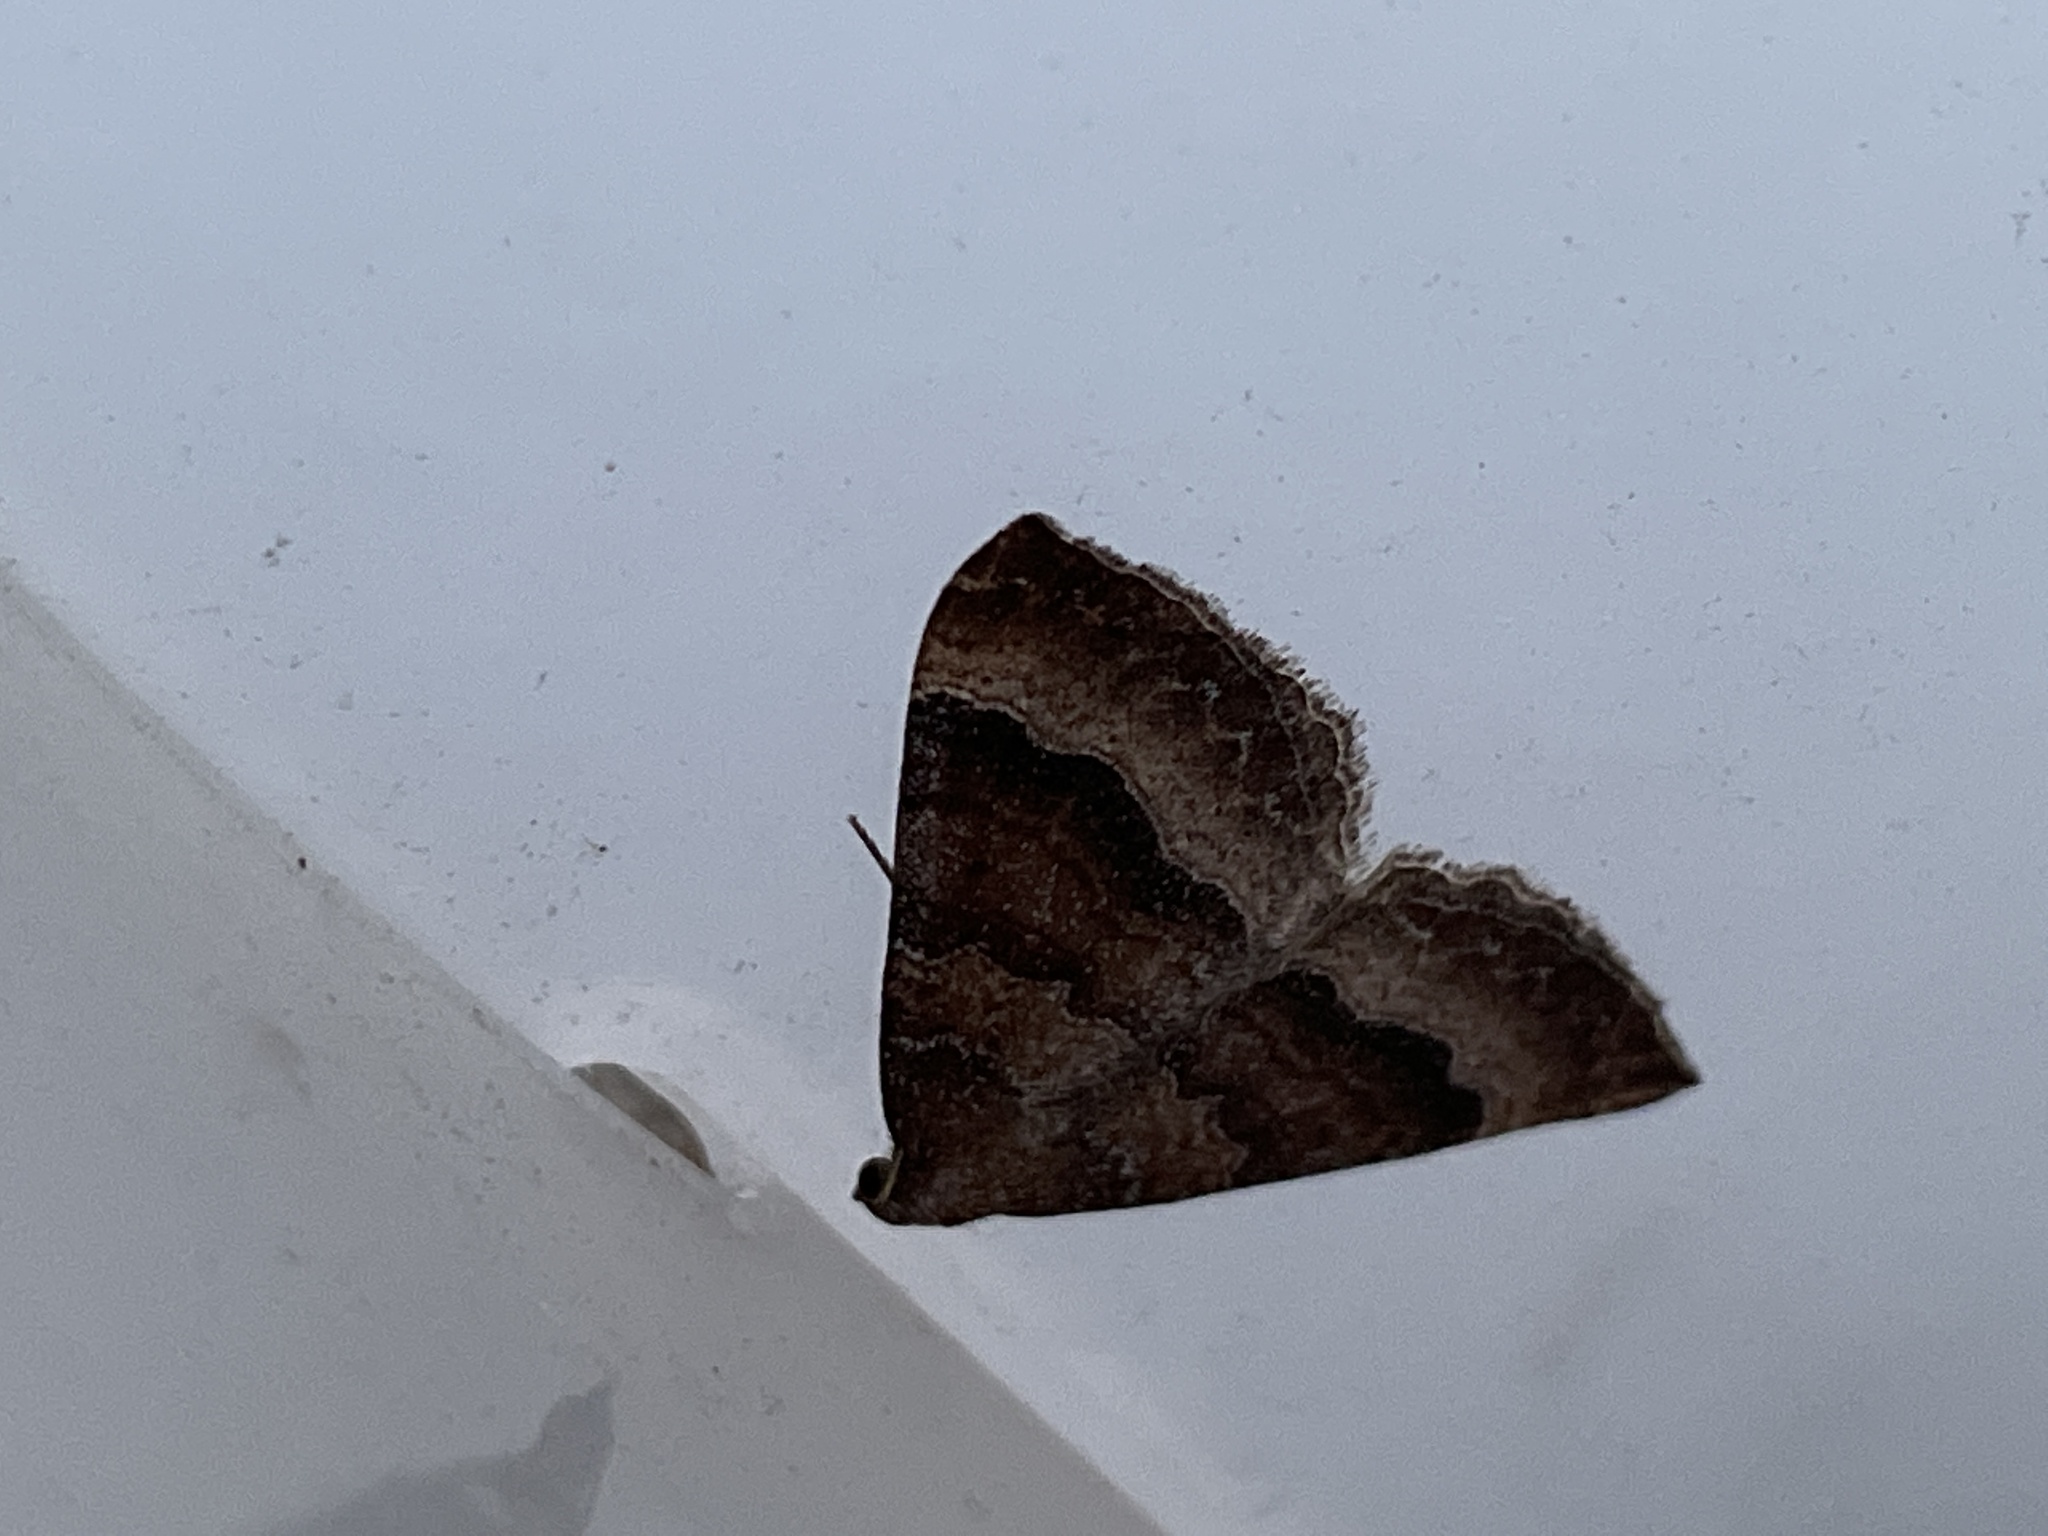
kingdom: Animalia
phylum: Arthropoda
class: Insecta
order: Lepidoptera
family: Geometridae
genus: Larentia
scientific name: Larentia clavaria
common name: Mallow
